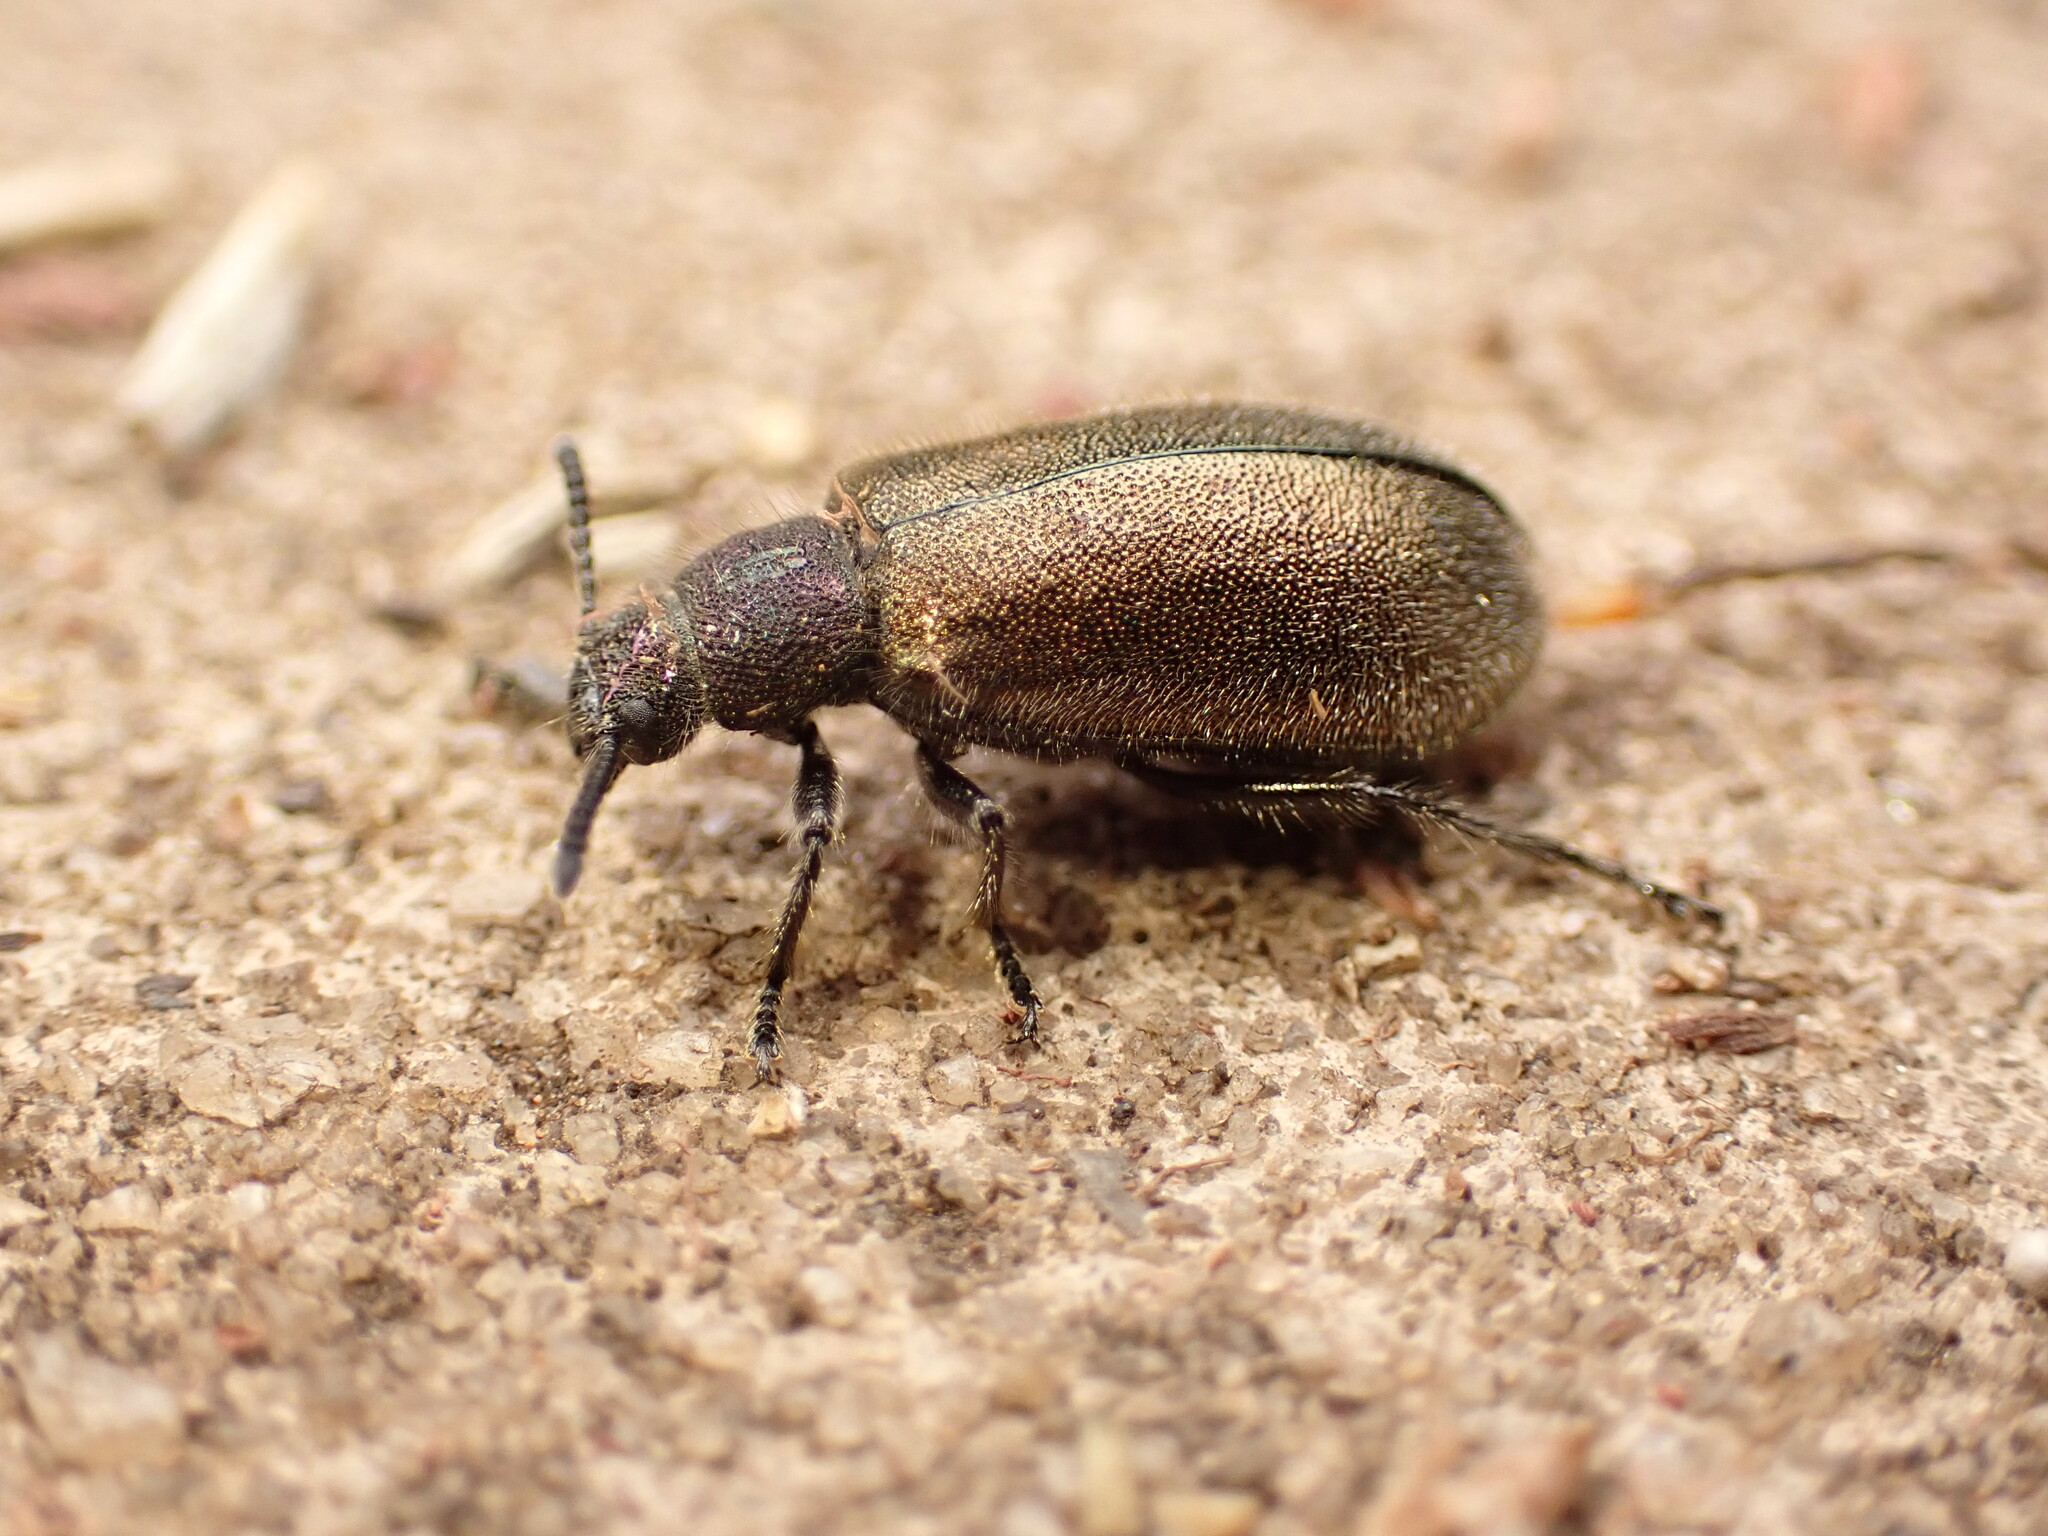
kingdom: Animalia
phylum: Arthropoda
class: Insecta
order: Coleoptera
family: Tenebrionidae
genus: Lagria
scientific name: Lagria villosa
